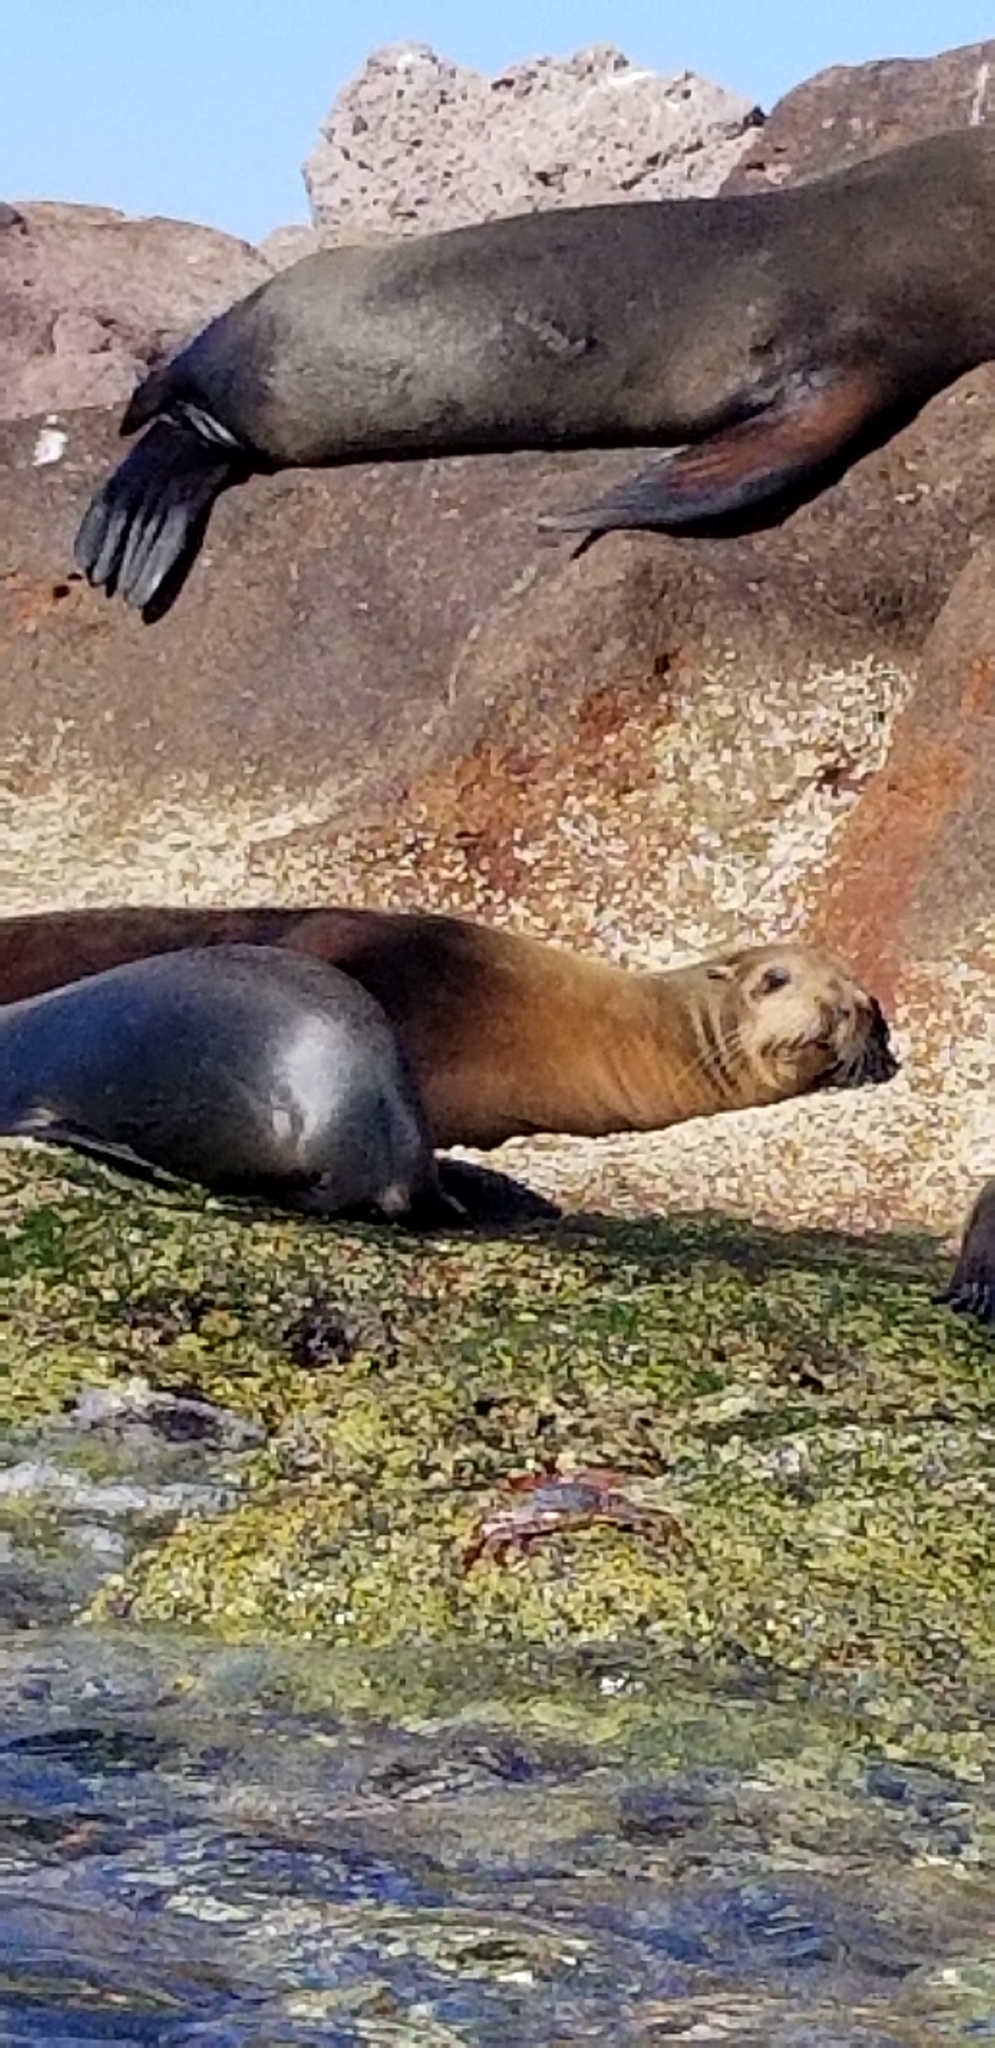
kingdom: Animalia
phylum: Chordata
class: Mammalia
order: Carnivora
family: Otariidae
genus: Zalophus
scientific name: Zalophus californianus
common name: California sea lion
